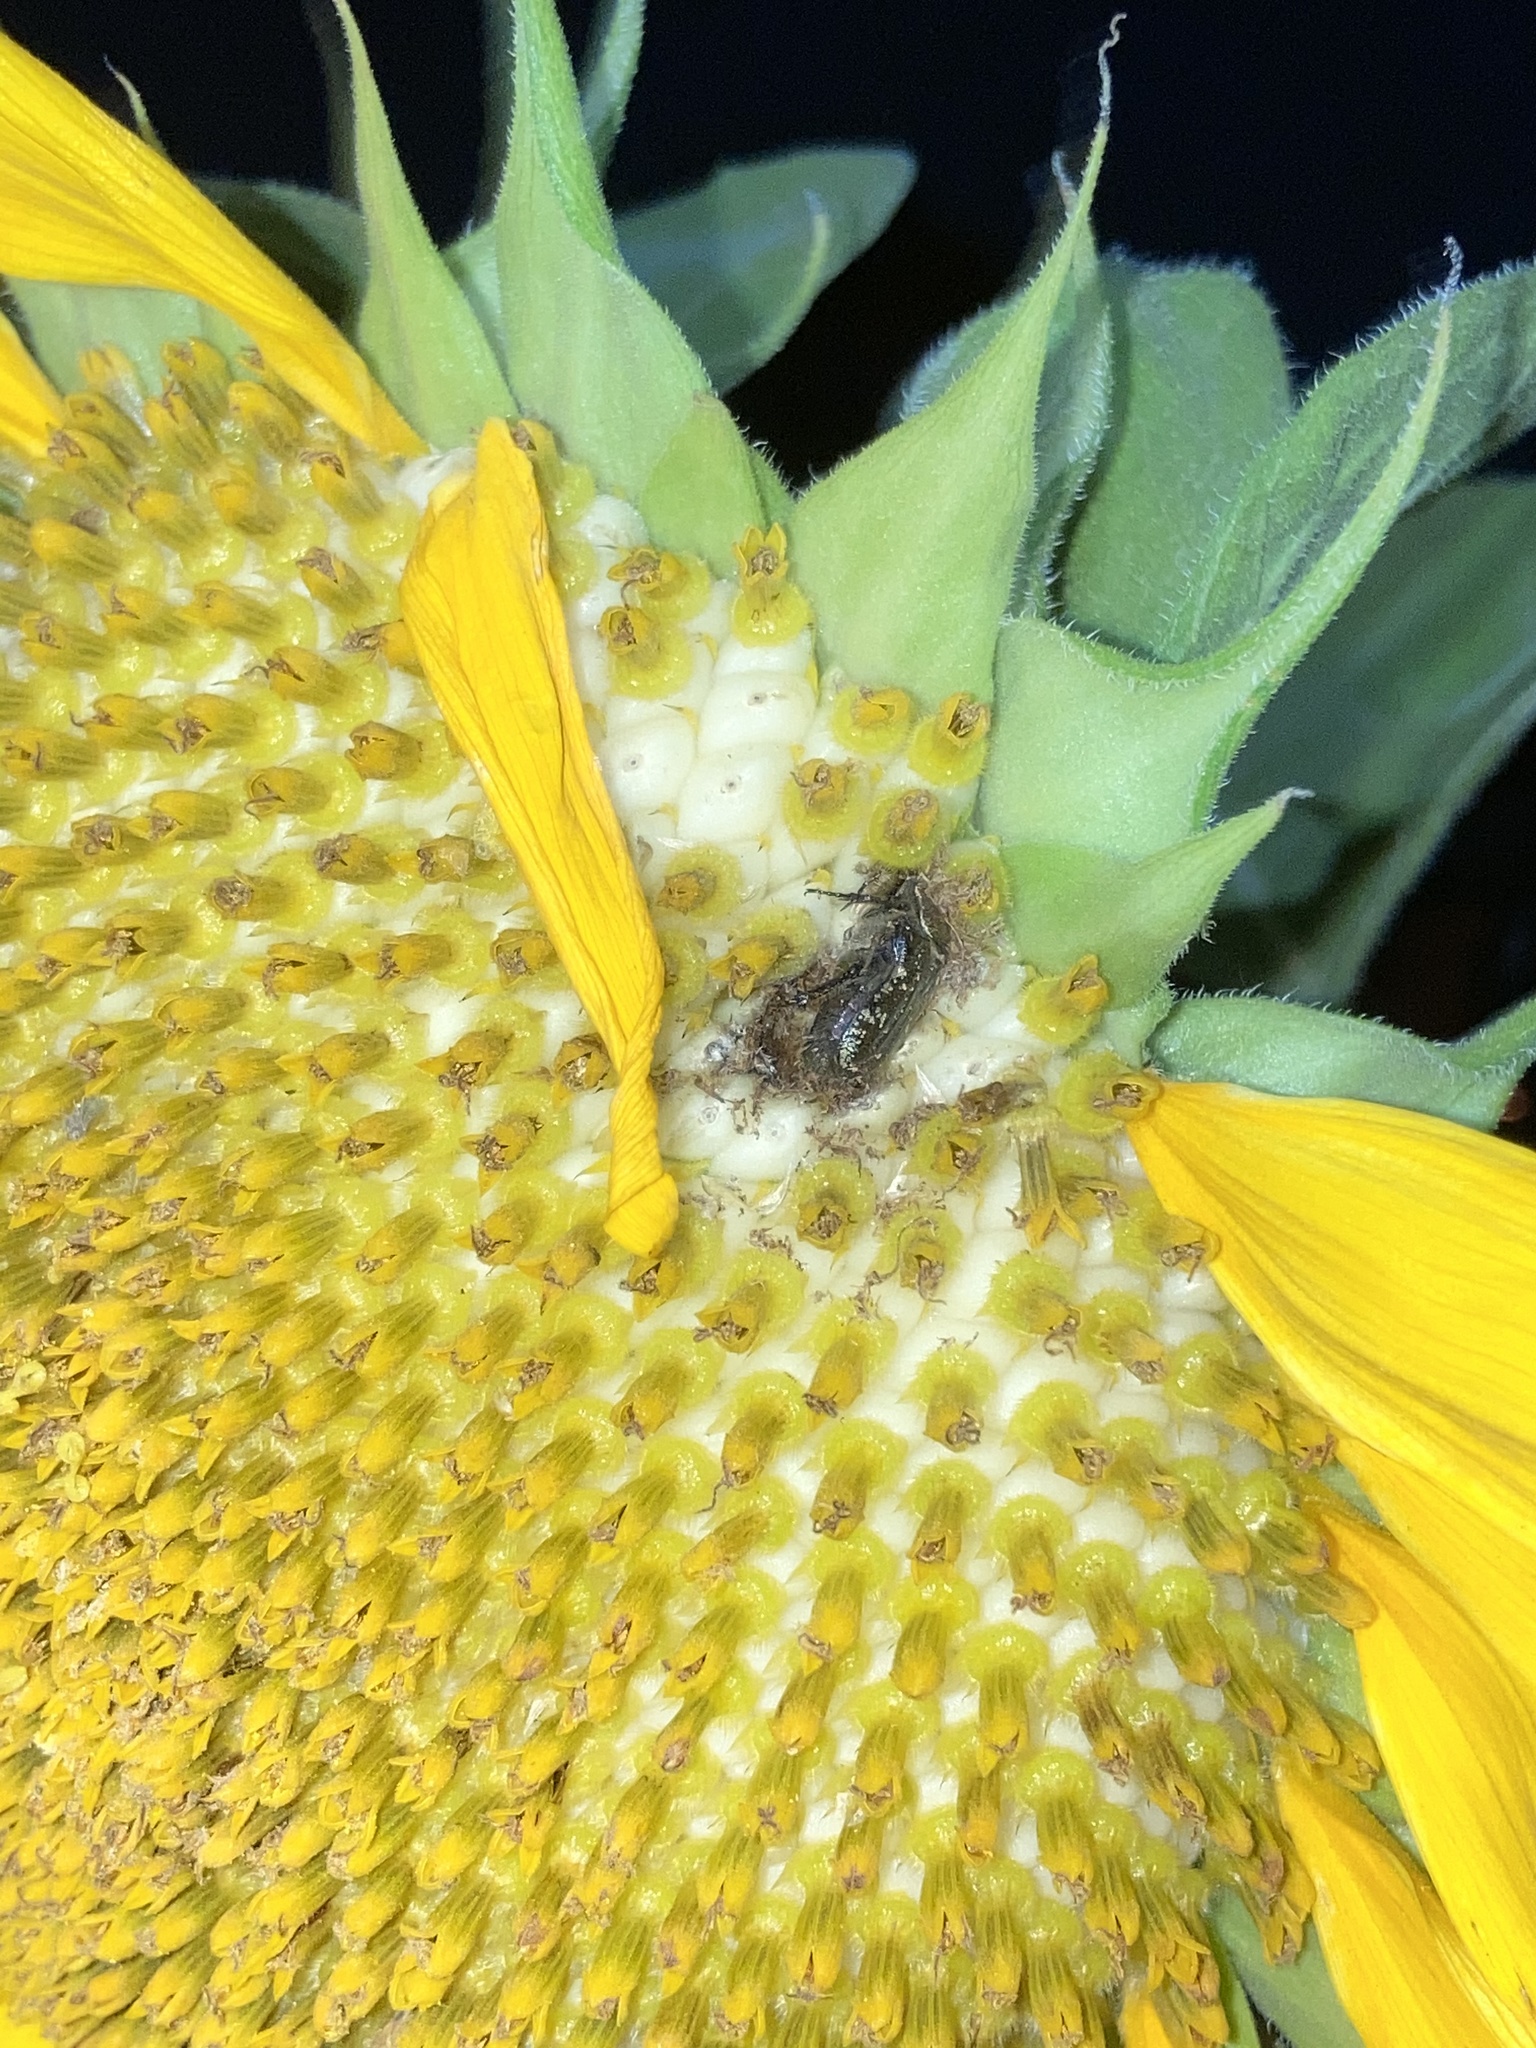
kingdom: Animalia
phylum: Arthropoda
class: Insecta
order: Coleoptera
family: Scarabaeidae
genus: Euphoria
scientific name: Euphoria sepulcralis
